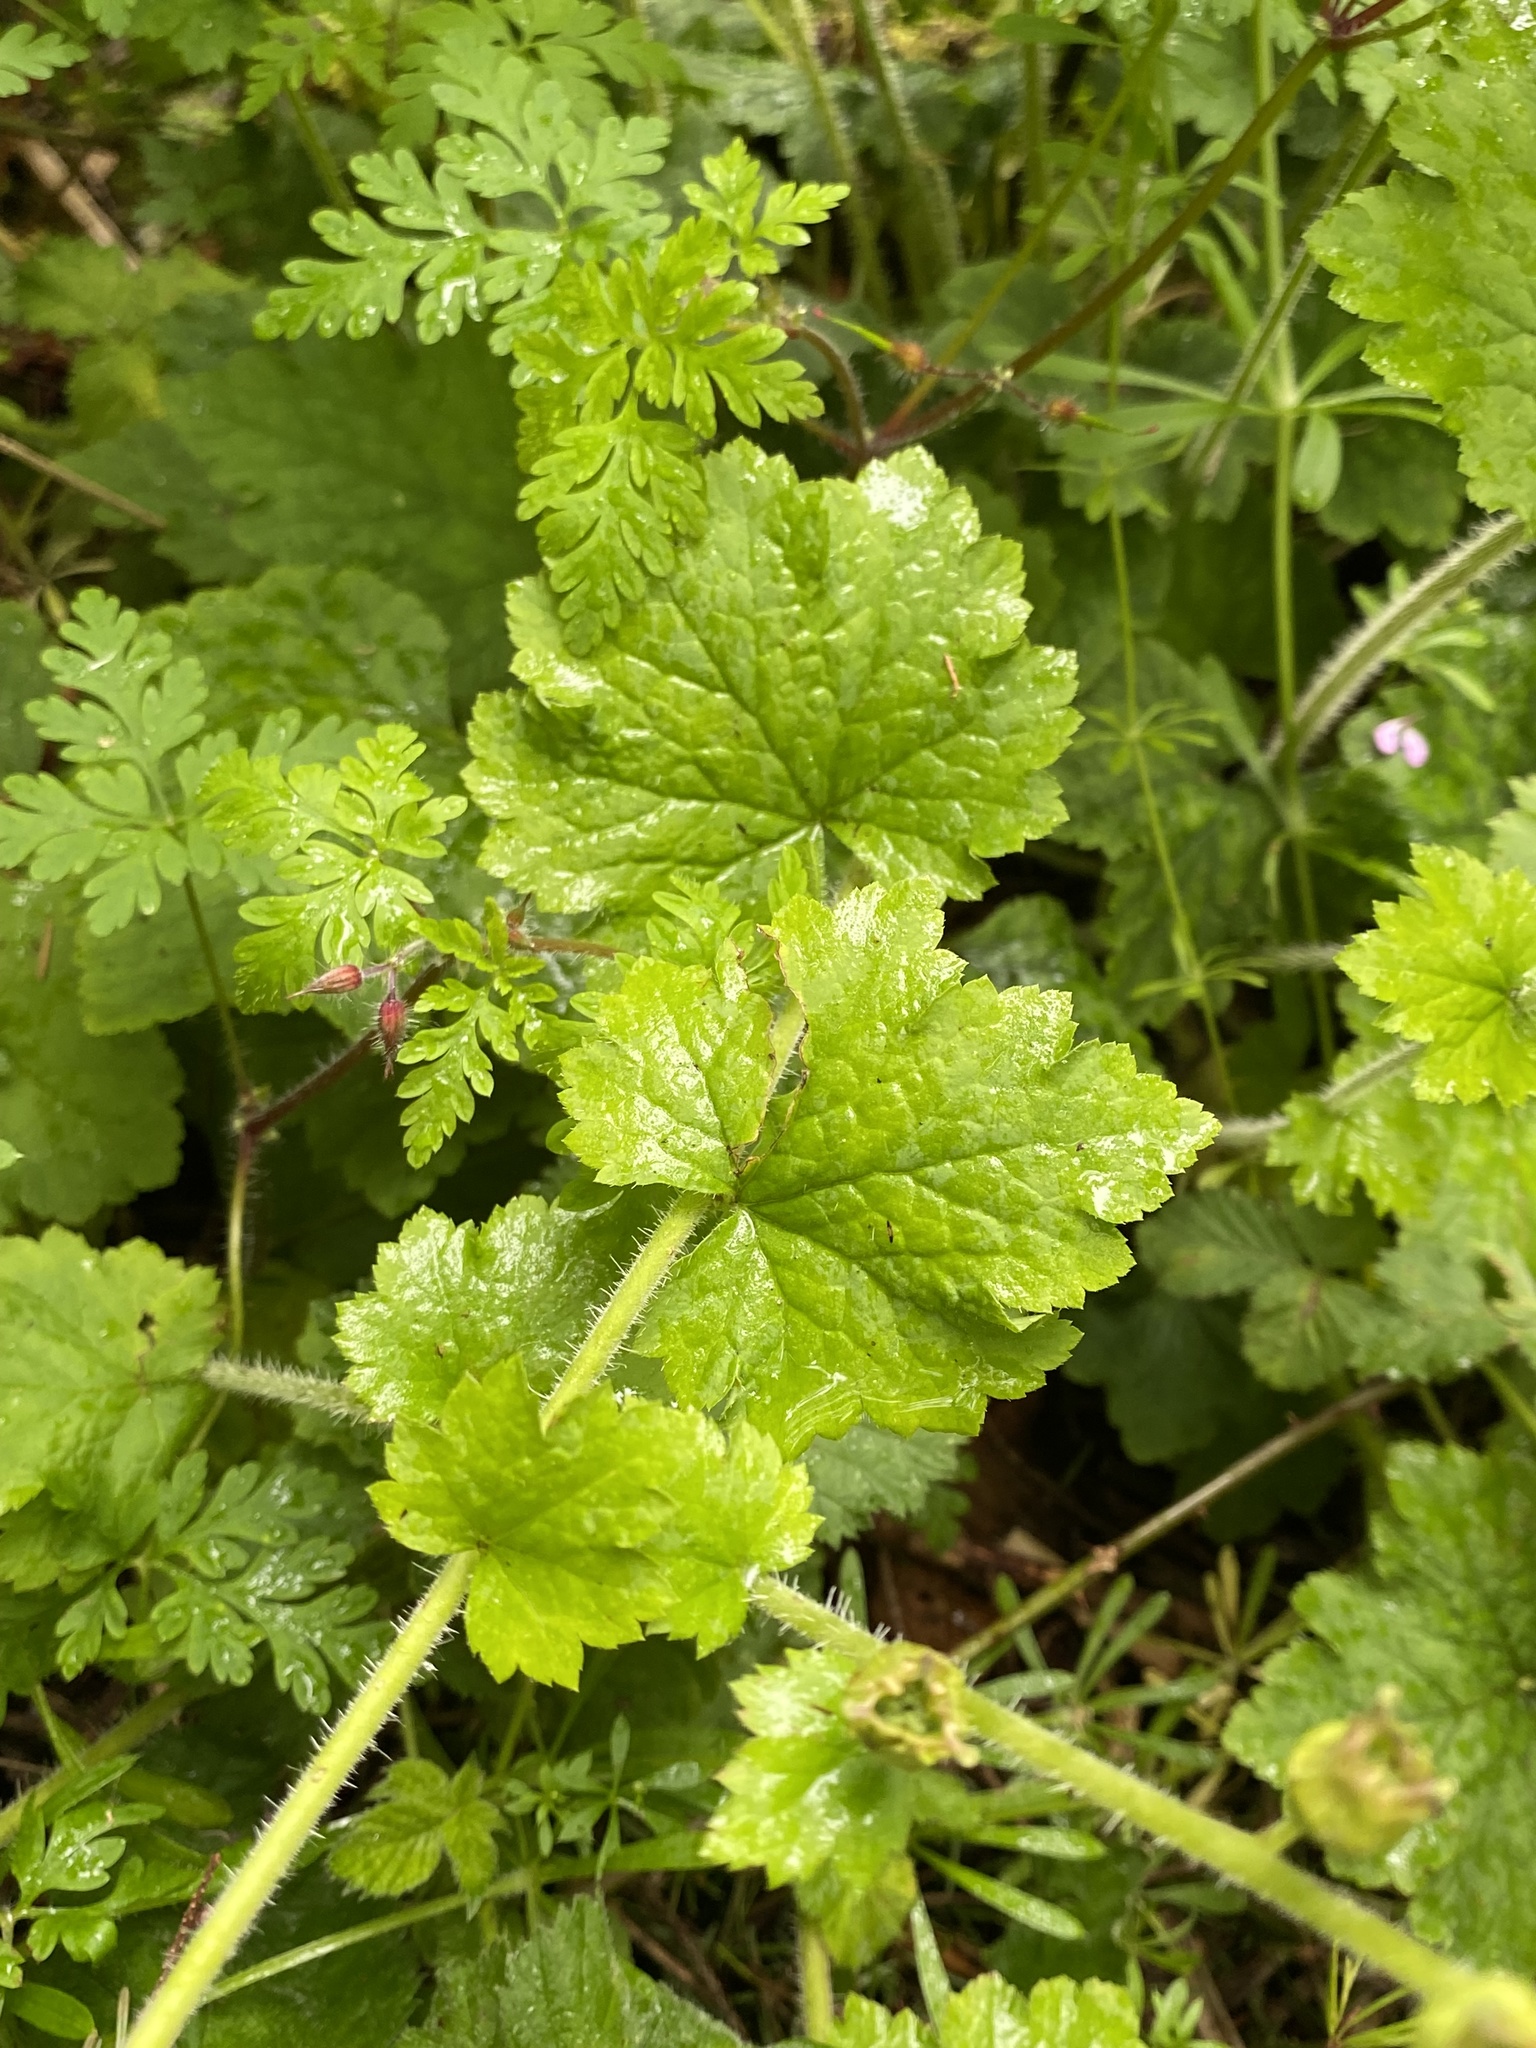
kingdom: Plantae
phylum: Tracheophyta
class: Magnoliopsida
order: Saxifragales
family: Saxifragaceae
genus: Tellima
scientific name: Tellima grandiflora
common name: Fringecups
